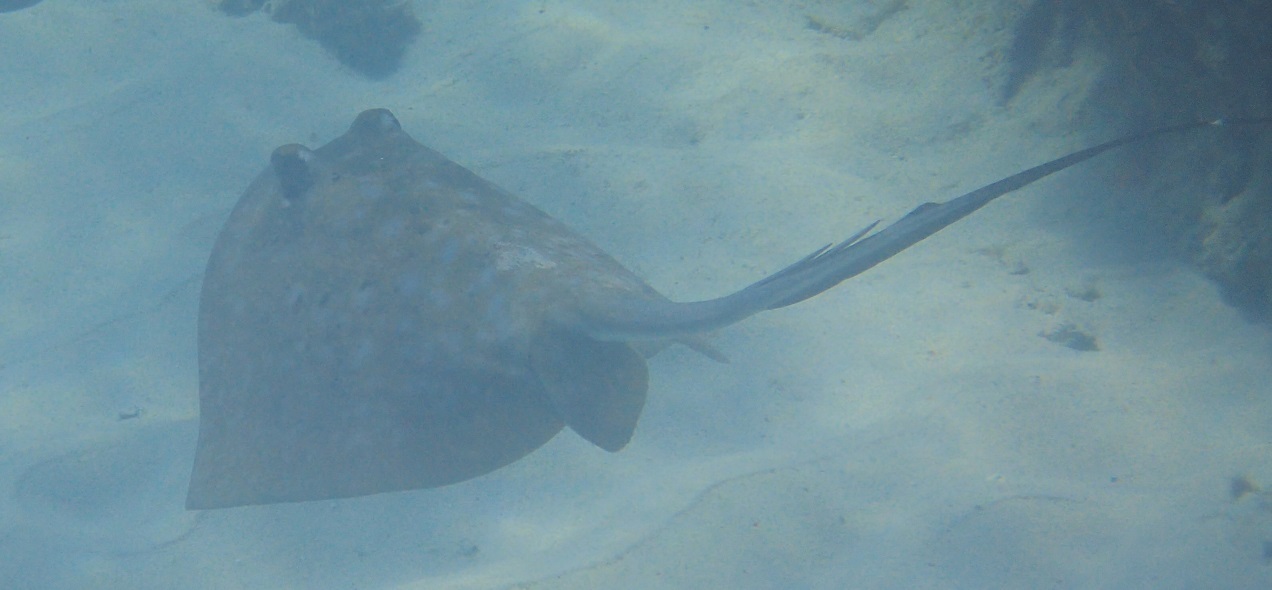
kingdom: Animalia
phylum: Chordata
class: Elasmobranchii
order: Myliobatiformes
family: Dasyatidae
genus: Neotrygon
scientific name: Neotrygon kuhlii
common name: Bluespotted stingray
